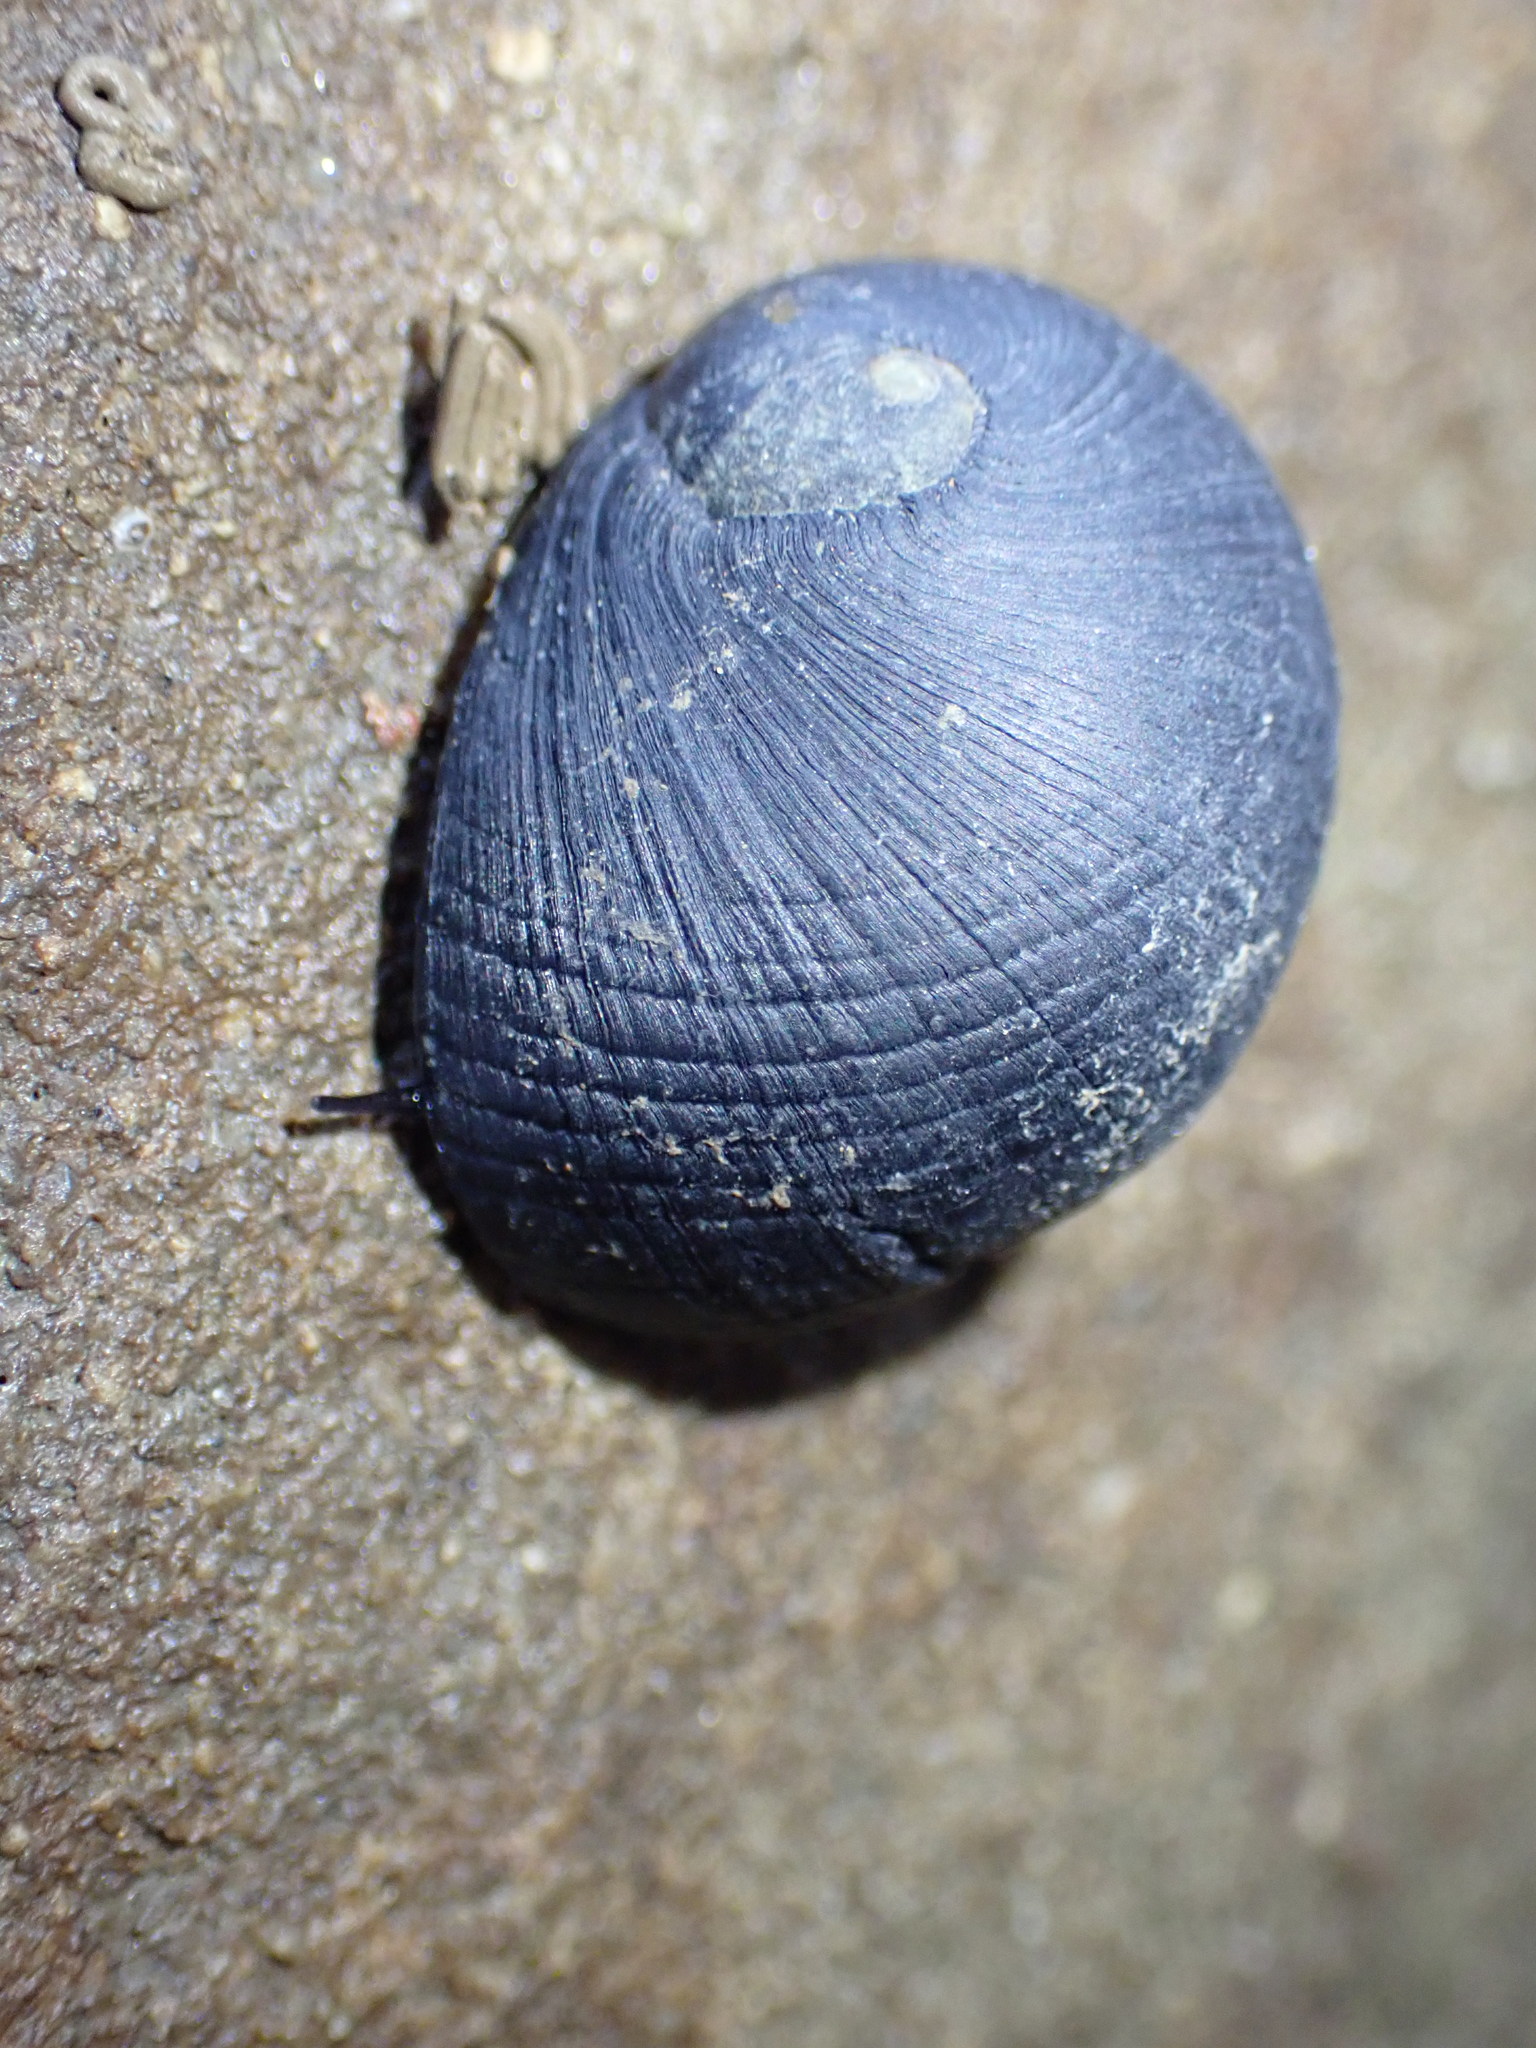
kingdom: Animalia
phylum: Mollusca
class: Gastropoda
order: Cycloneritida
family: Neritidae
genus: Nerita
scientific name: Nerita melanotragus
